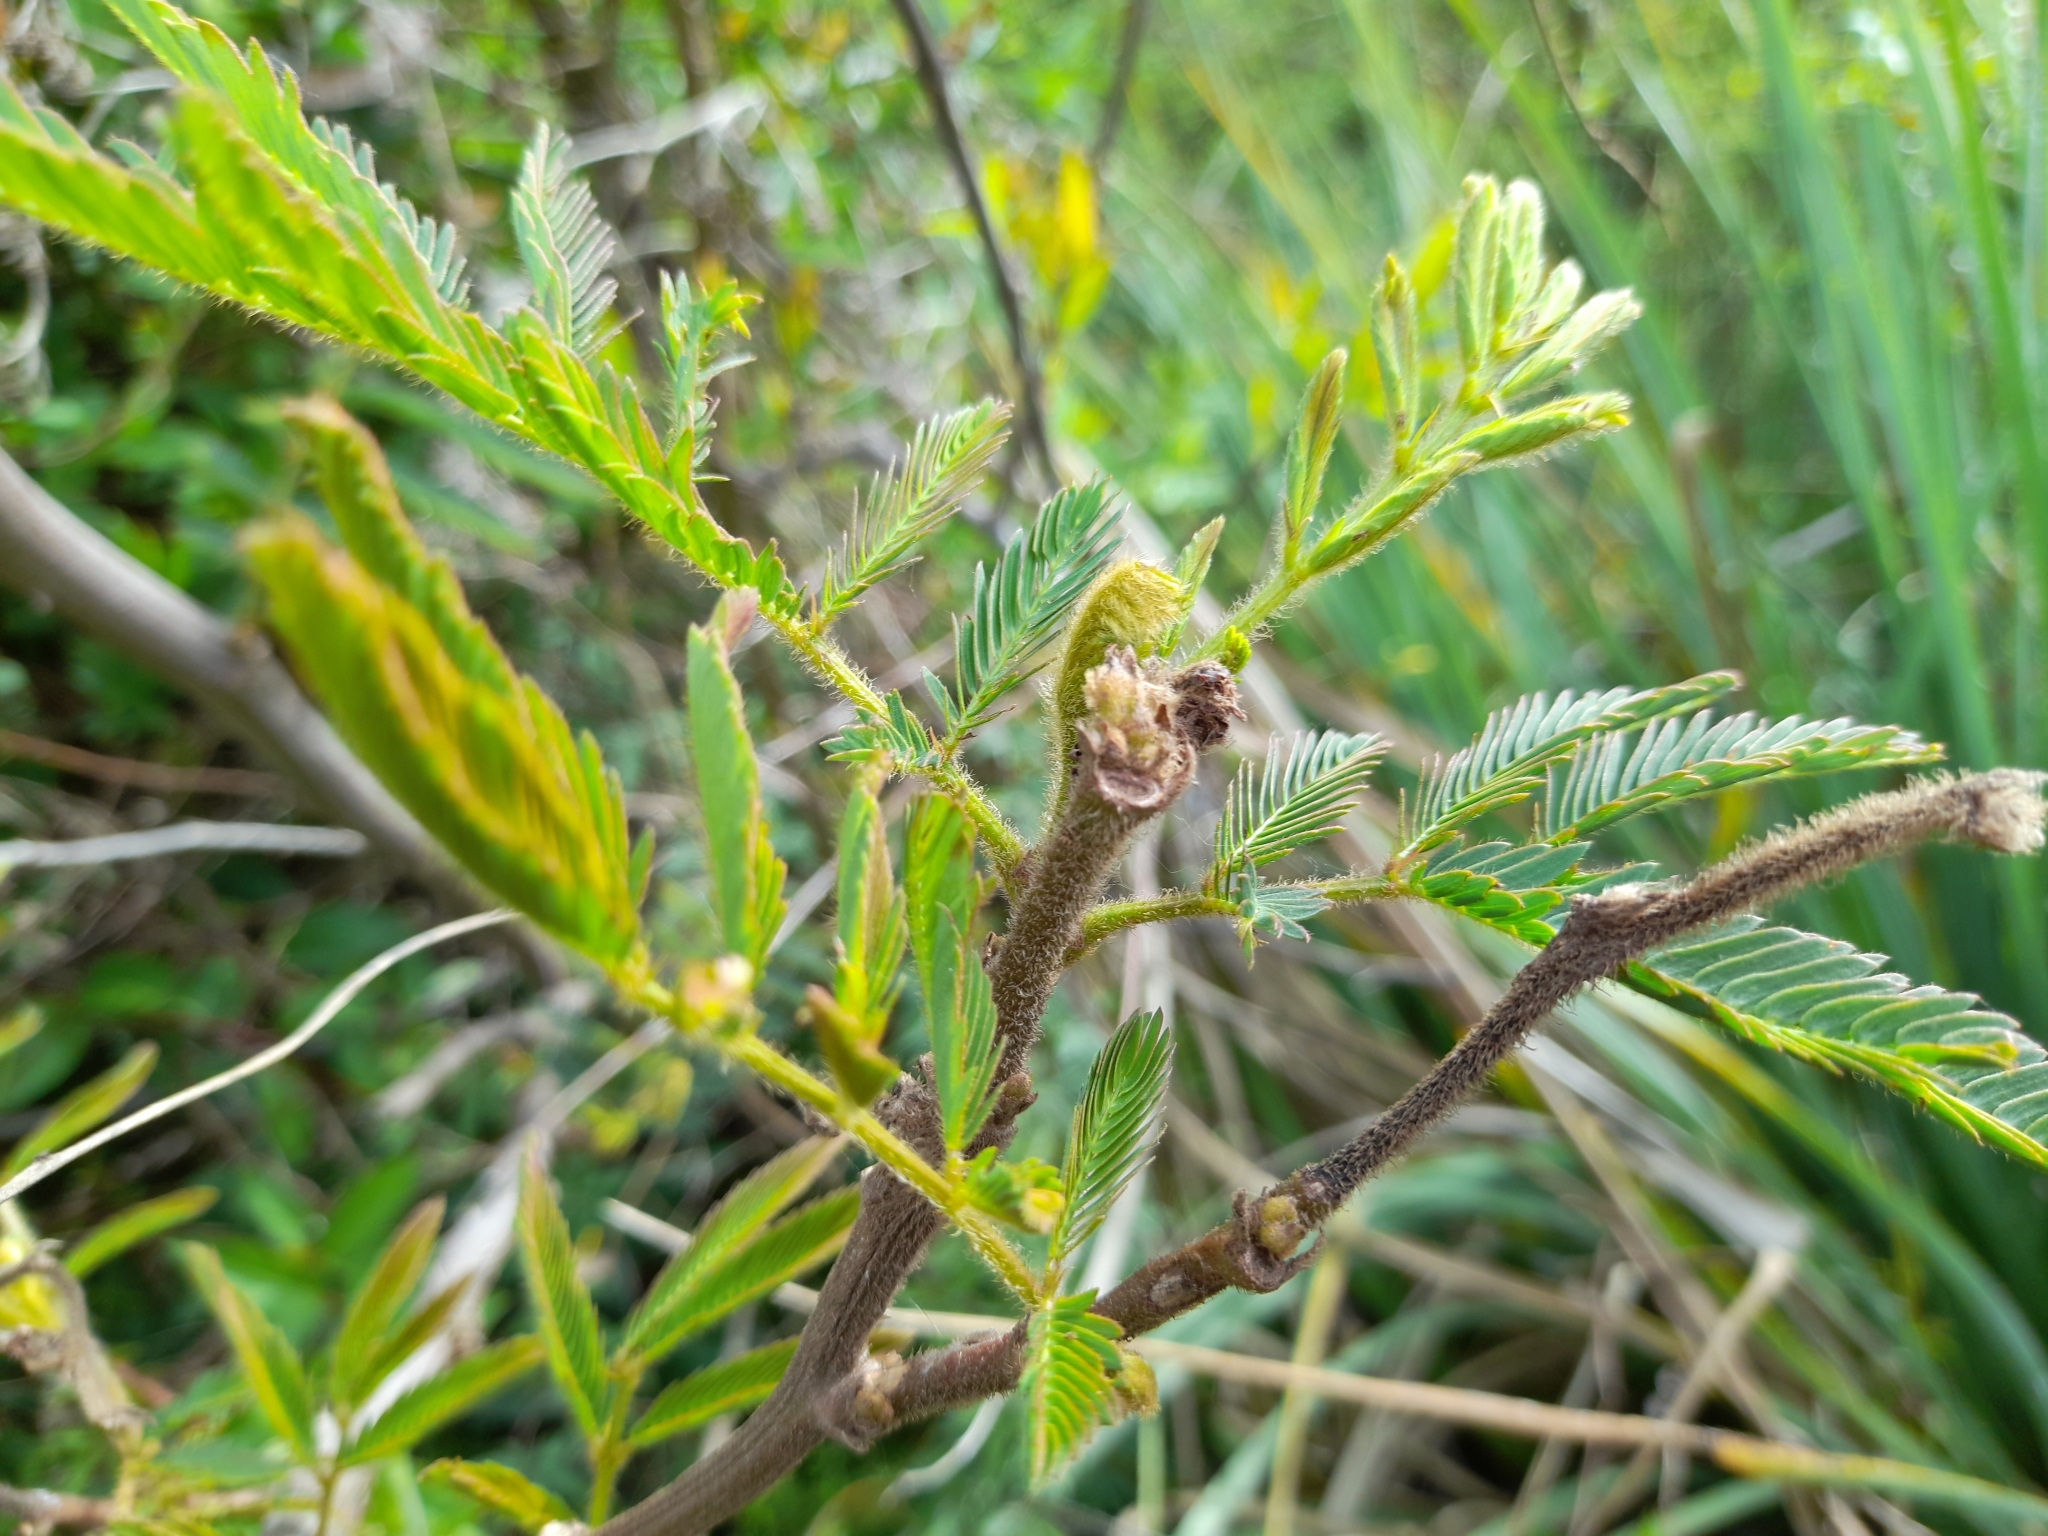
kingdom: Plantae
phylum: Tracheophyta
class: Magnoliopsida
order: Fabales
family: Fabaceae
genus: Mimosa
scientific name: Mimosa pigra
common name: Black mimosa
